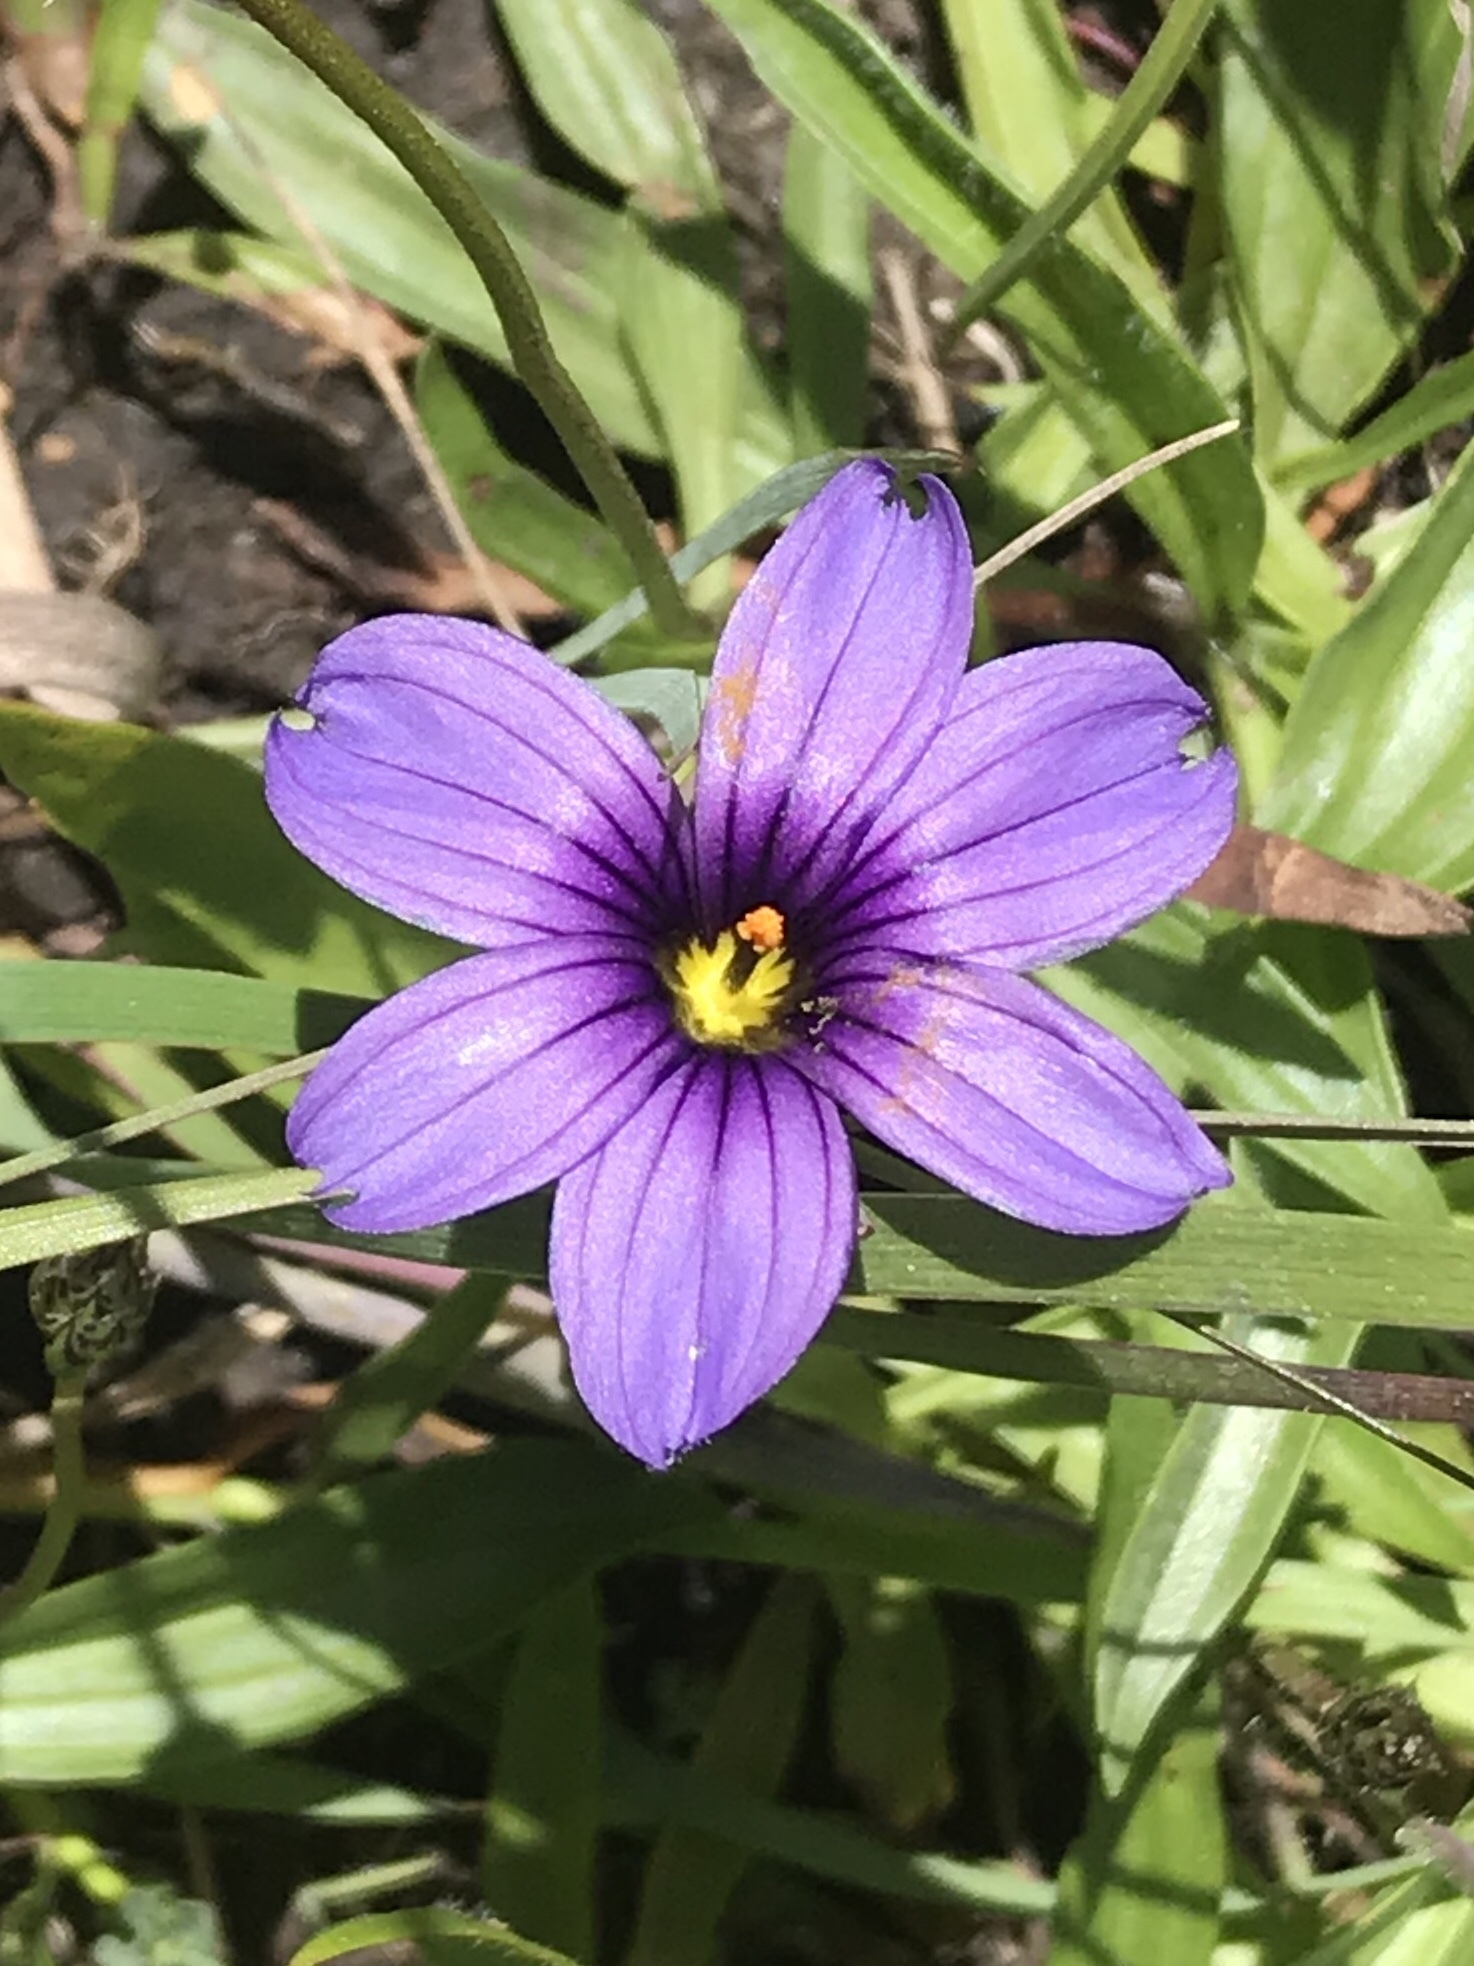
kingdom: Plantae
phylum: Tracheophyta
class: Liliopsida
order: Asparagales
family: Iridaceae
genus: Sisyrinchium
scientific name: Sisyrinchium bellum
